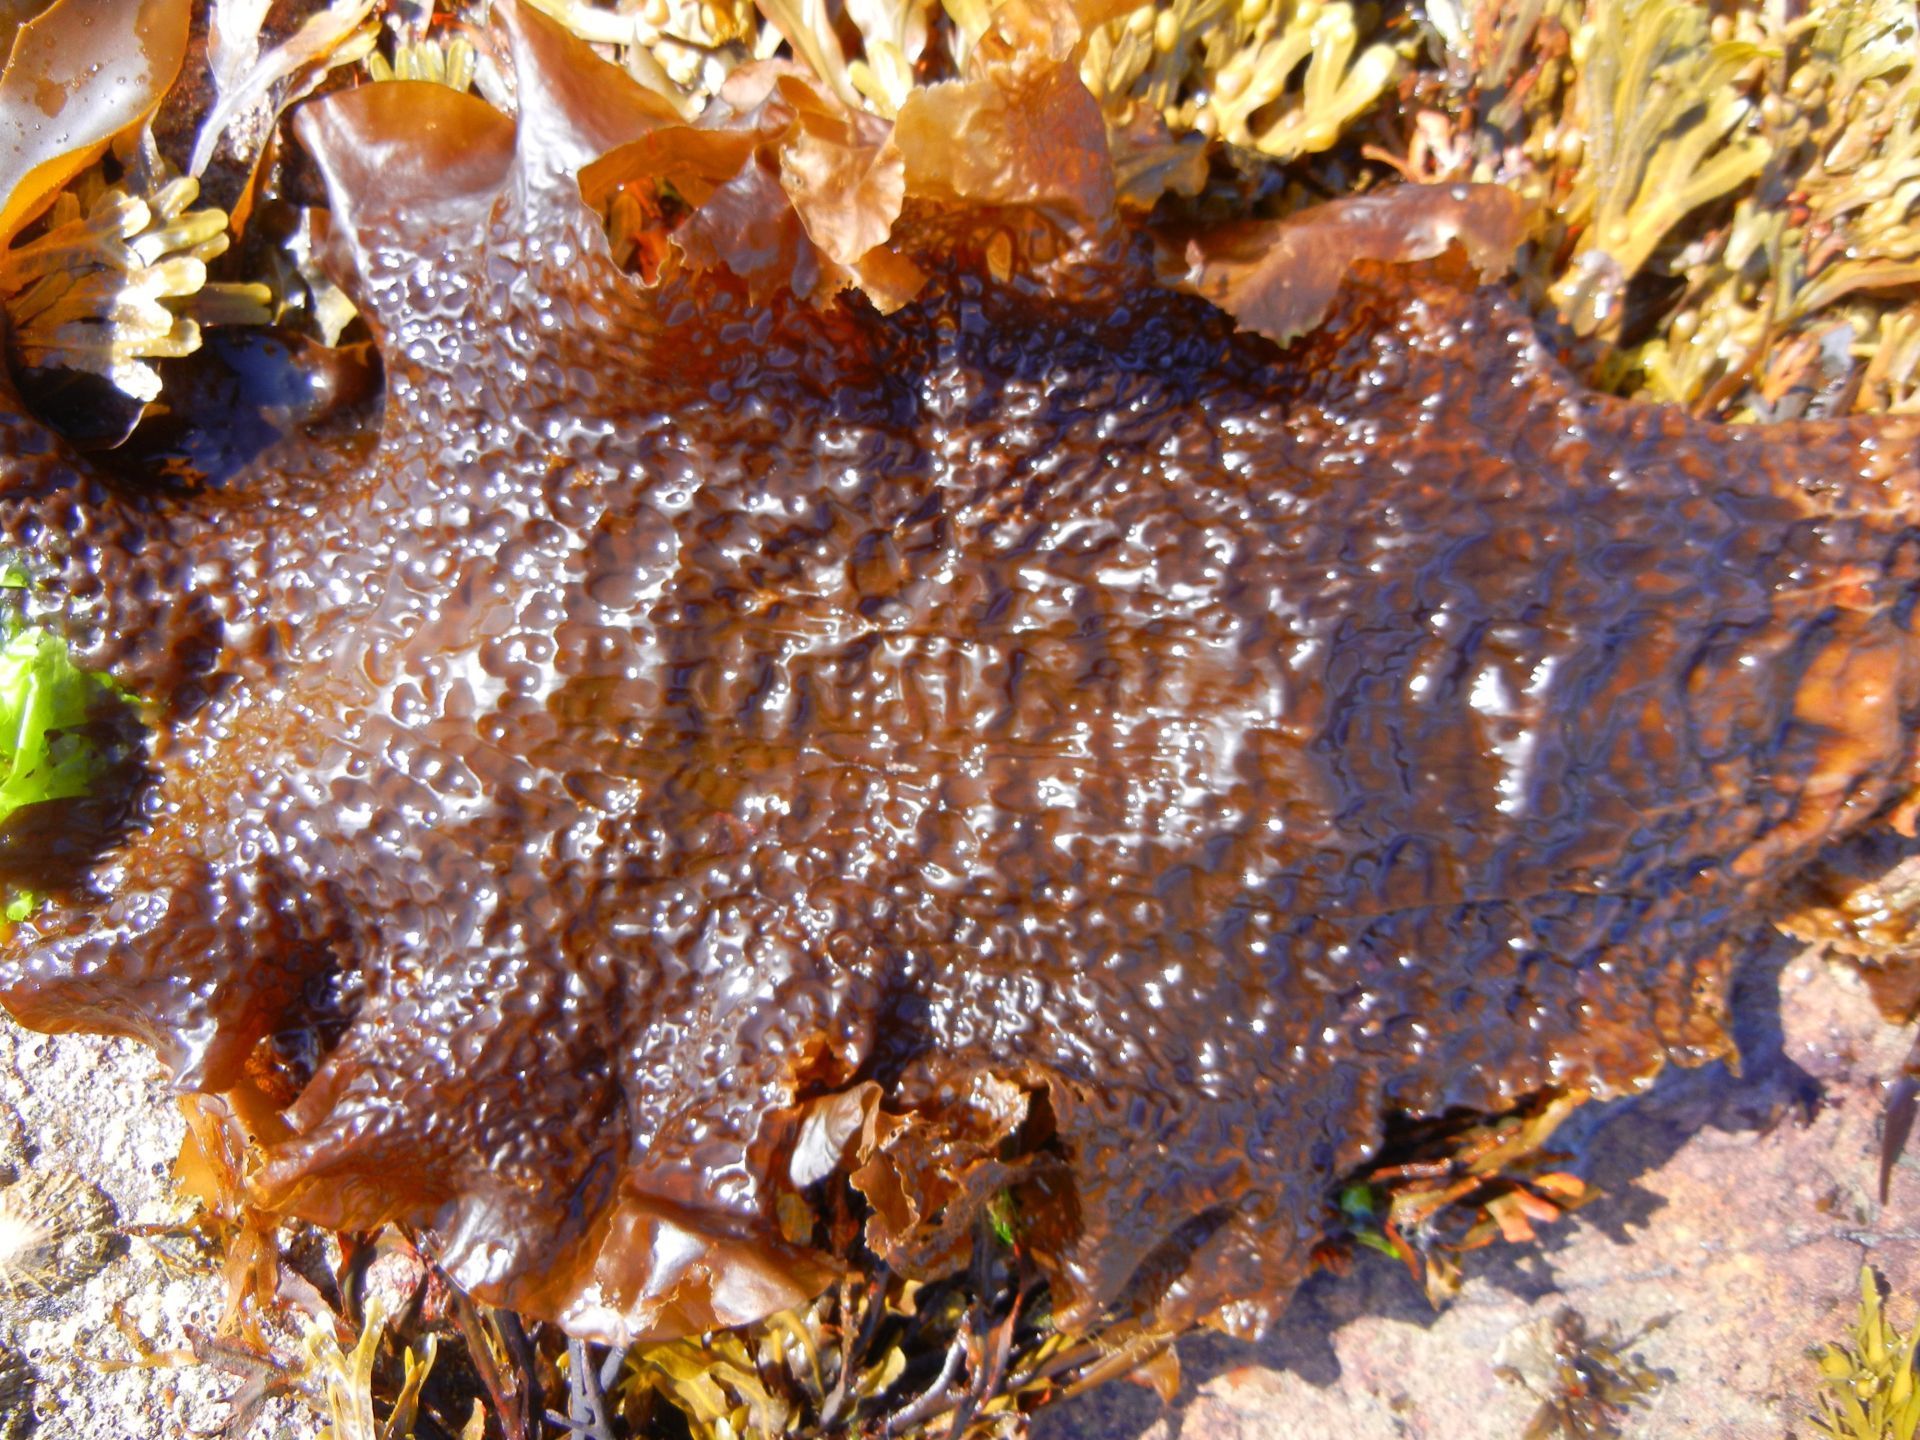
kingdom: Chromista
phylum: Ochrophyta
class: Phaeophyceae
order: Laminariales
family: Laminariaceae
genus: Saccharina
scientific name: Saccharina latissima
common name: Poor man's weather glass
